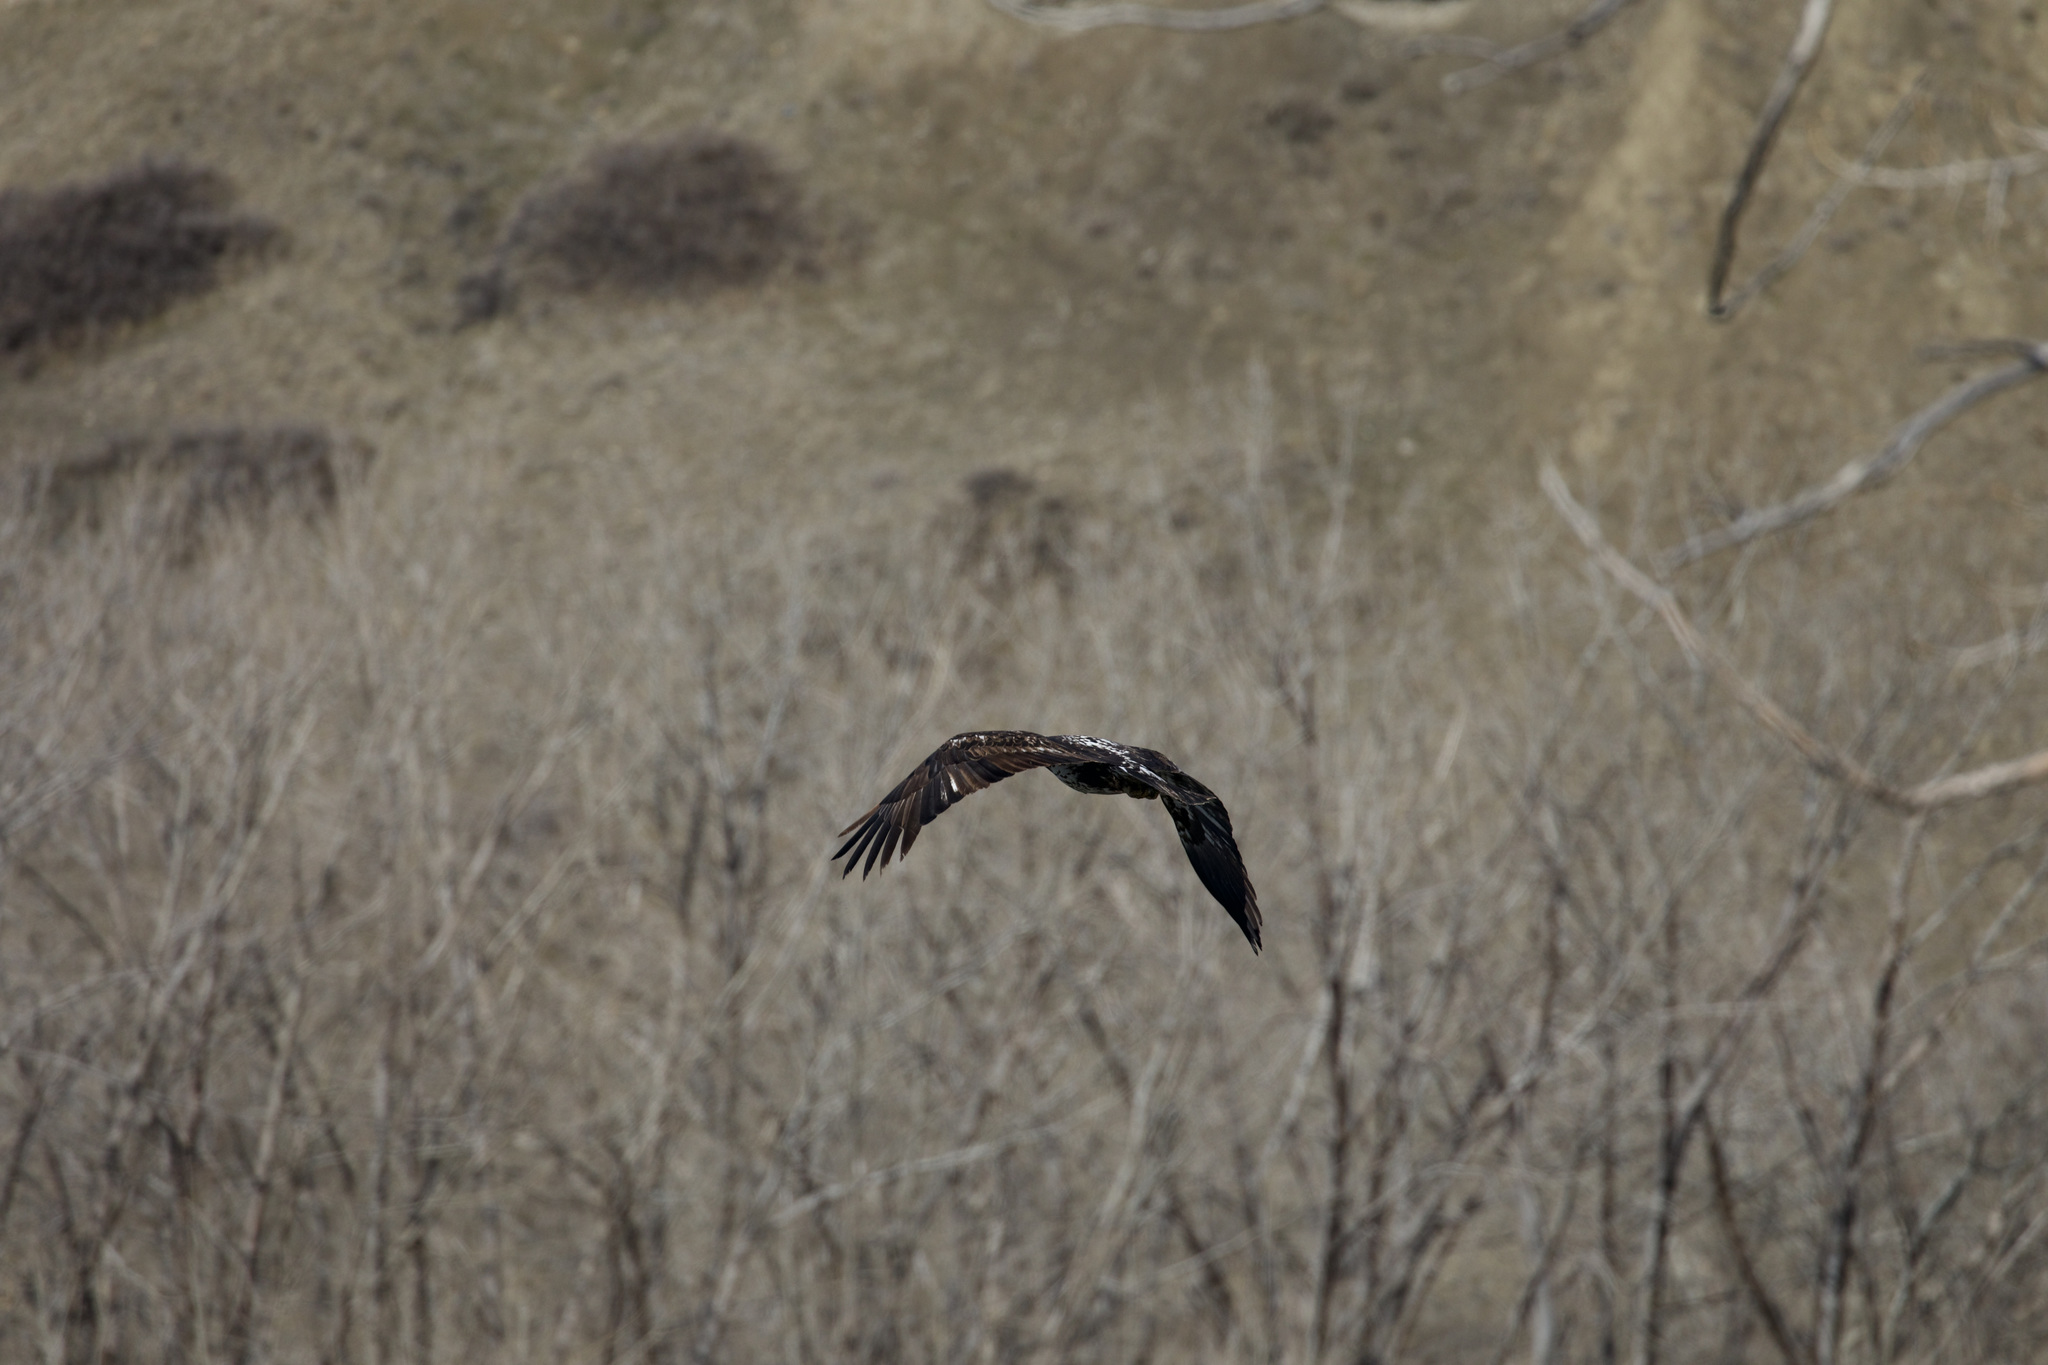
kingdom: Animalia
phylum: Chordata
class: Aves
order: Accipitriformes
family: Accipitridae
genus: Haliaeetus
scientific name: Haliaeetus leucocephalus
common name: Bald eagle
